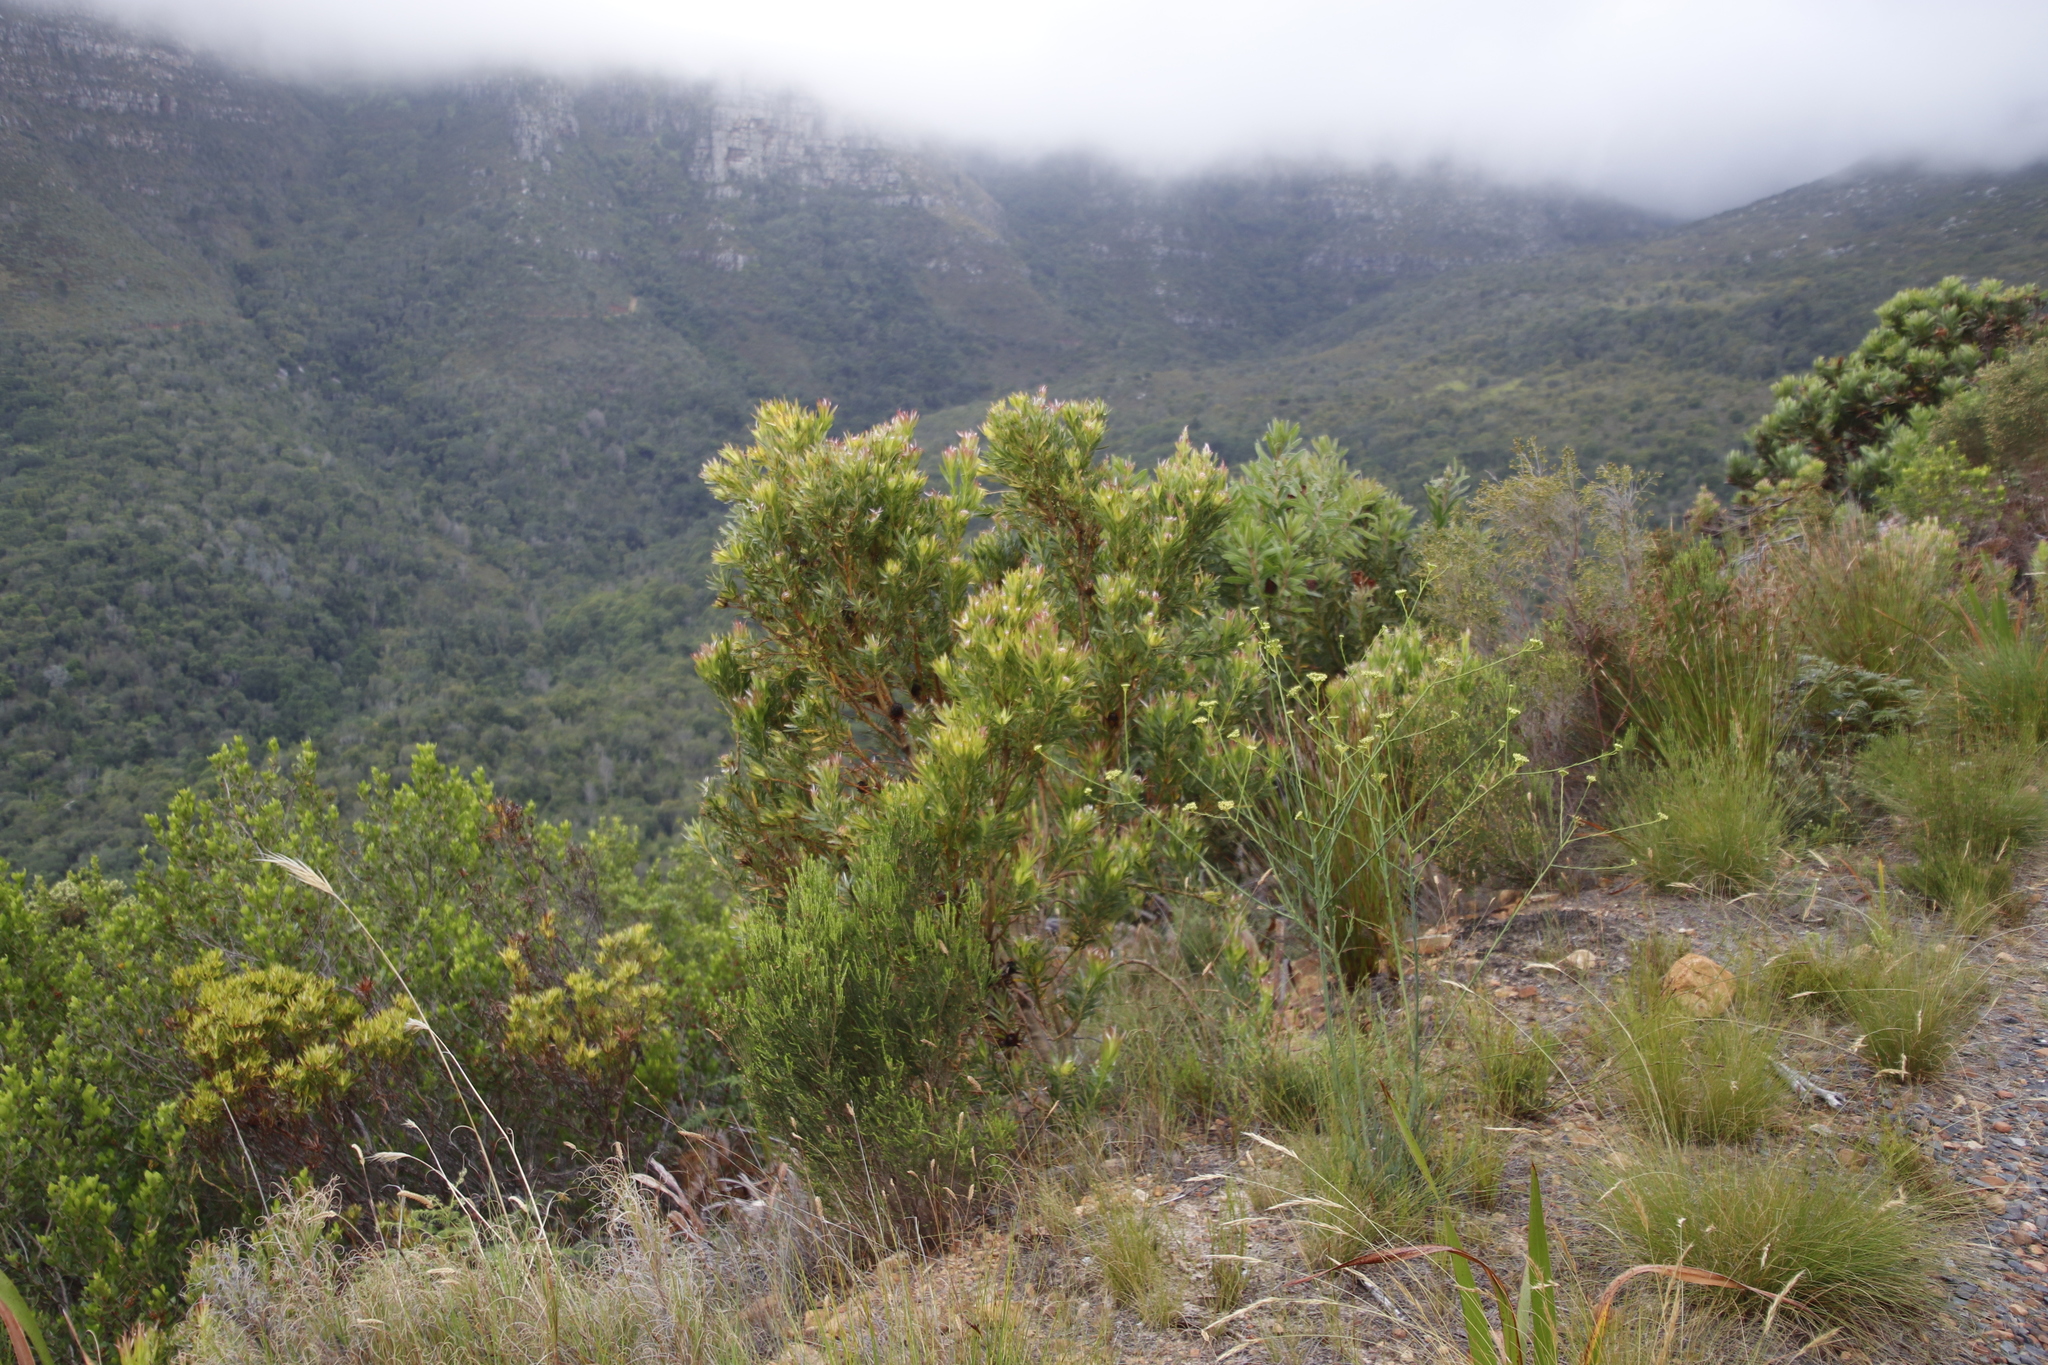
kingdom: Plantae
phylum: Tracheophyta
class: Magnoliopsida
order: Proteales
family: Proteaceae
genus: Leucadendron
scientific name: Leucadendron xanthoconus
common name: Sickle-leaf conebush
